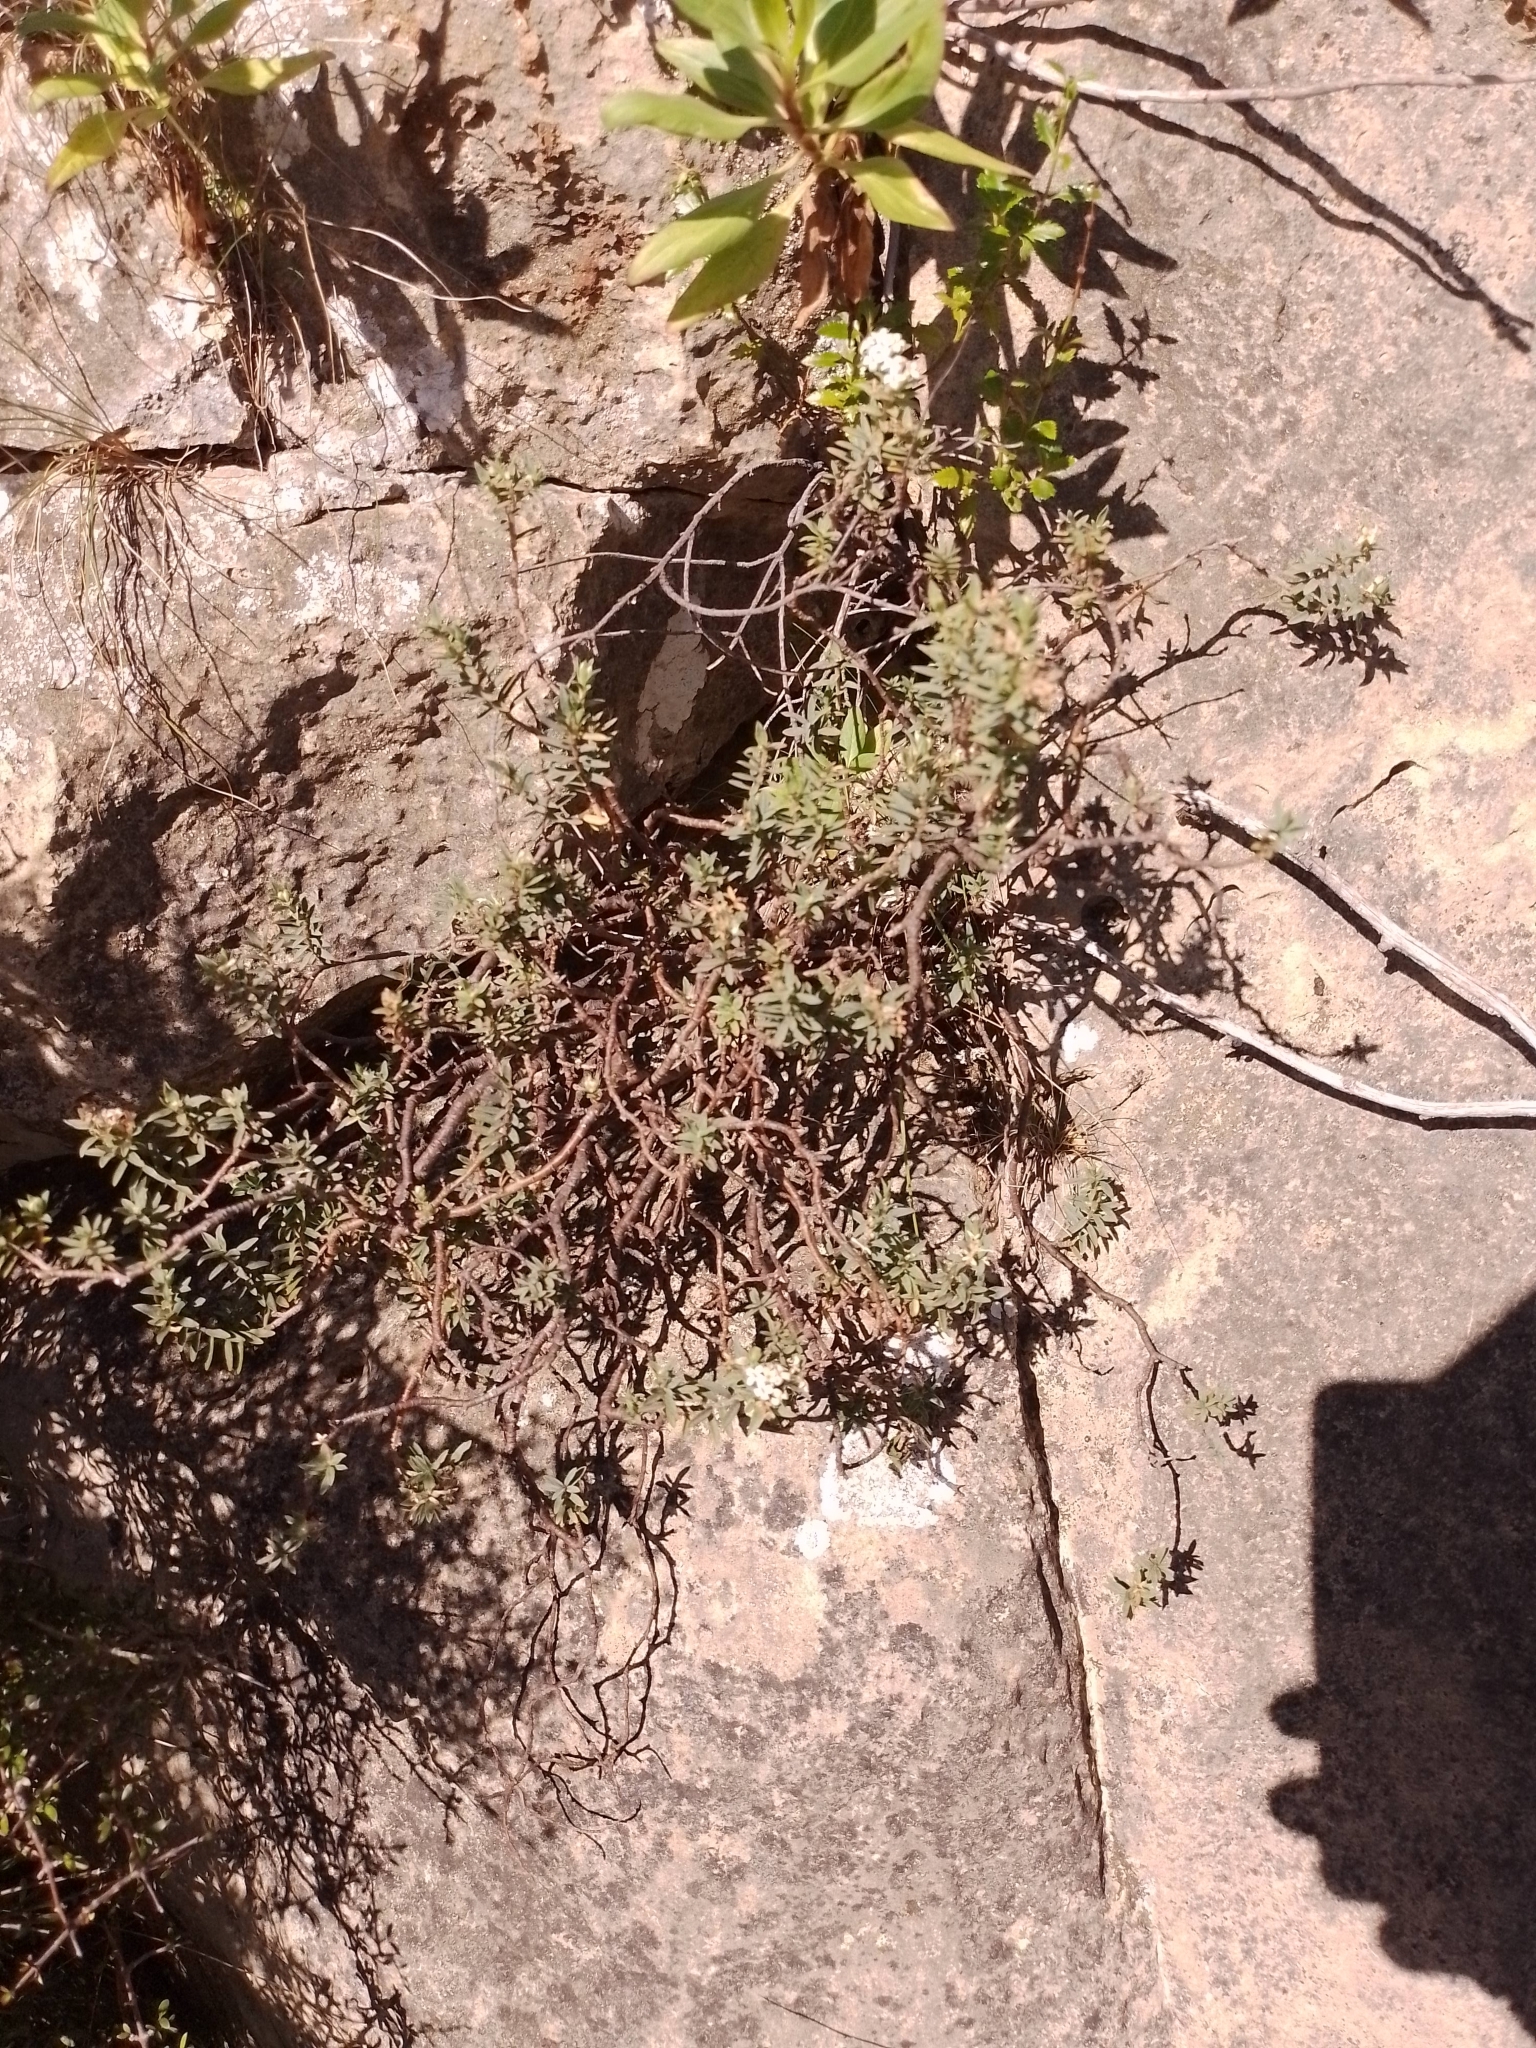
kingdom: Plantae
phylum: Tracheophyta
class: Magnoliopsida
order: Malvales
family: Thymelaeaceae
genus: Pimelea
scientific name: Pimelea declivis
